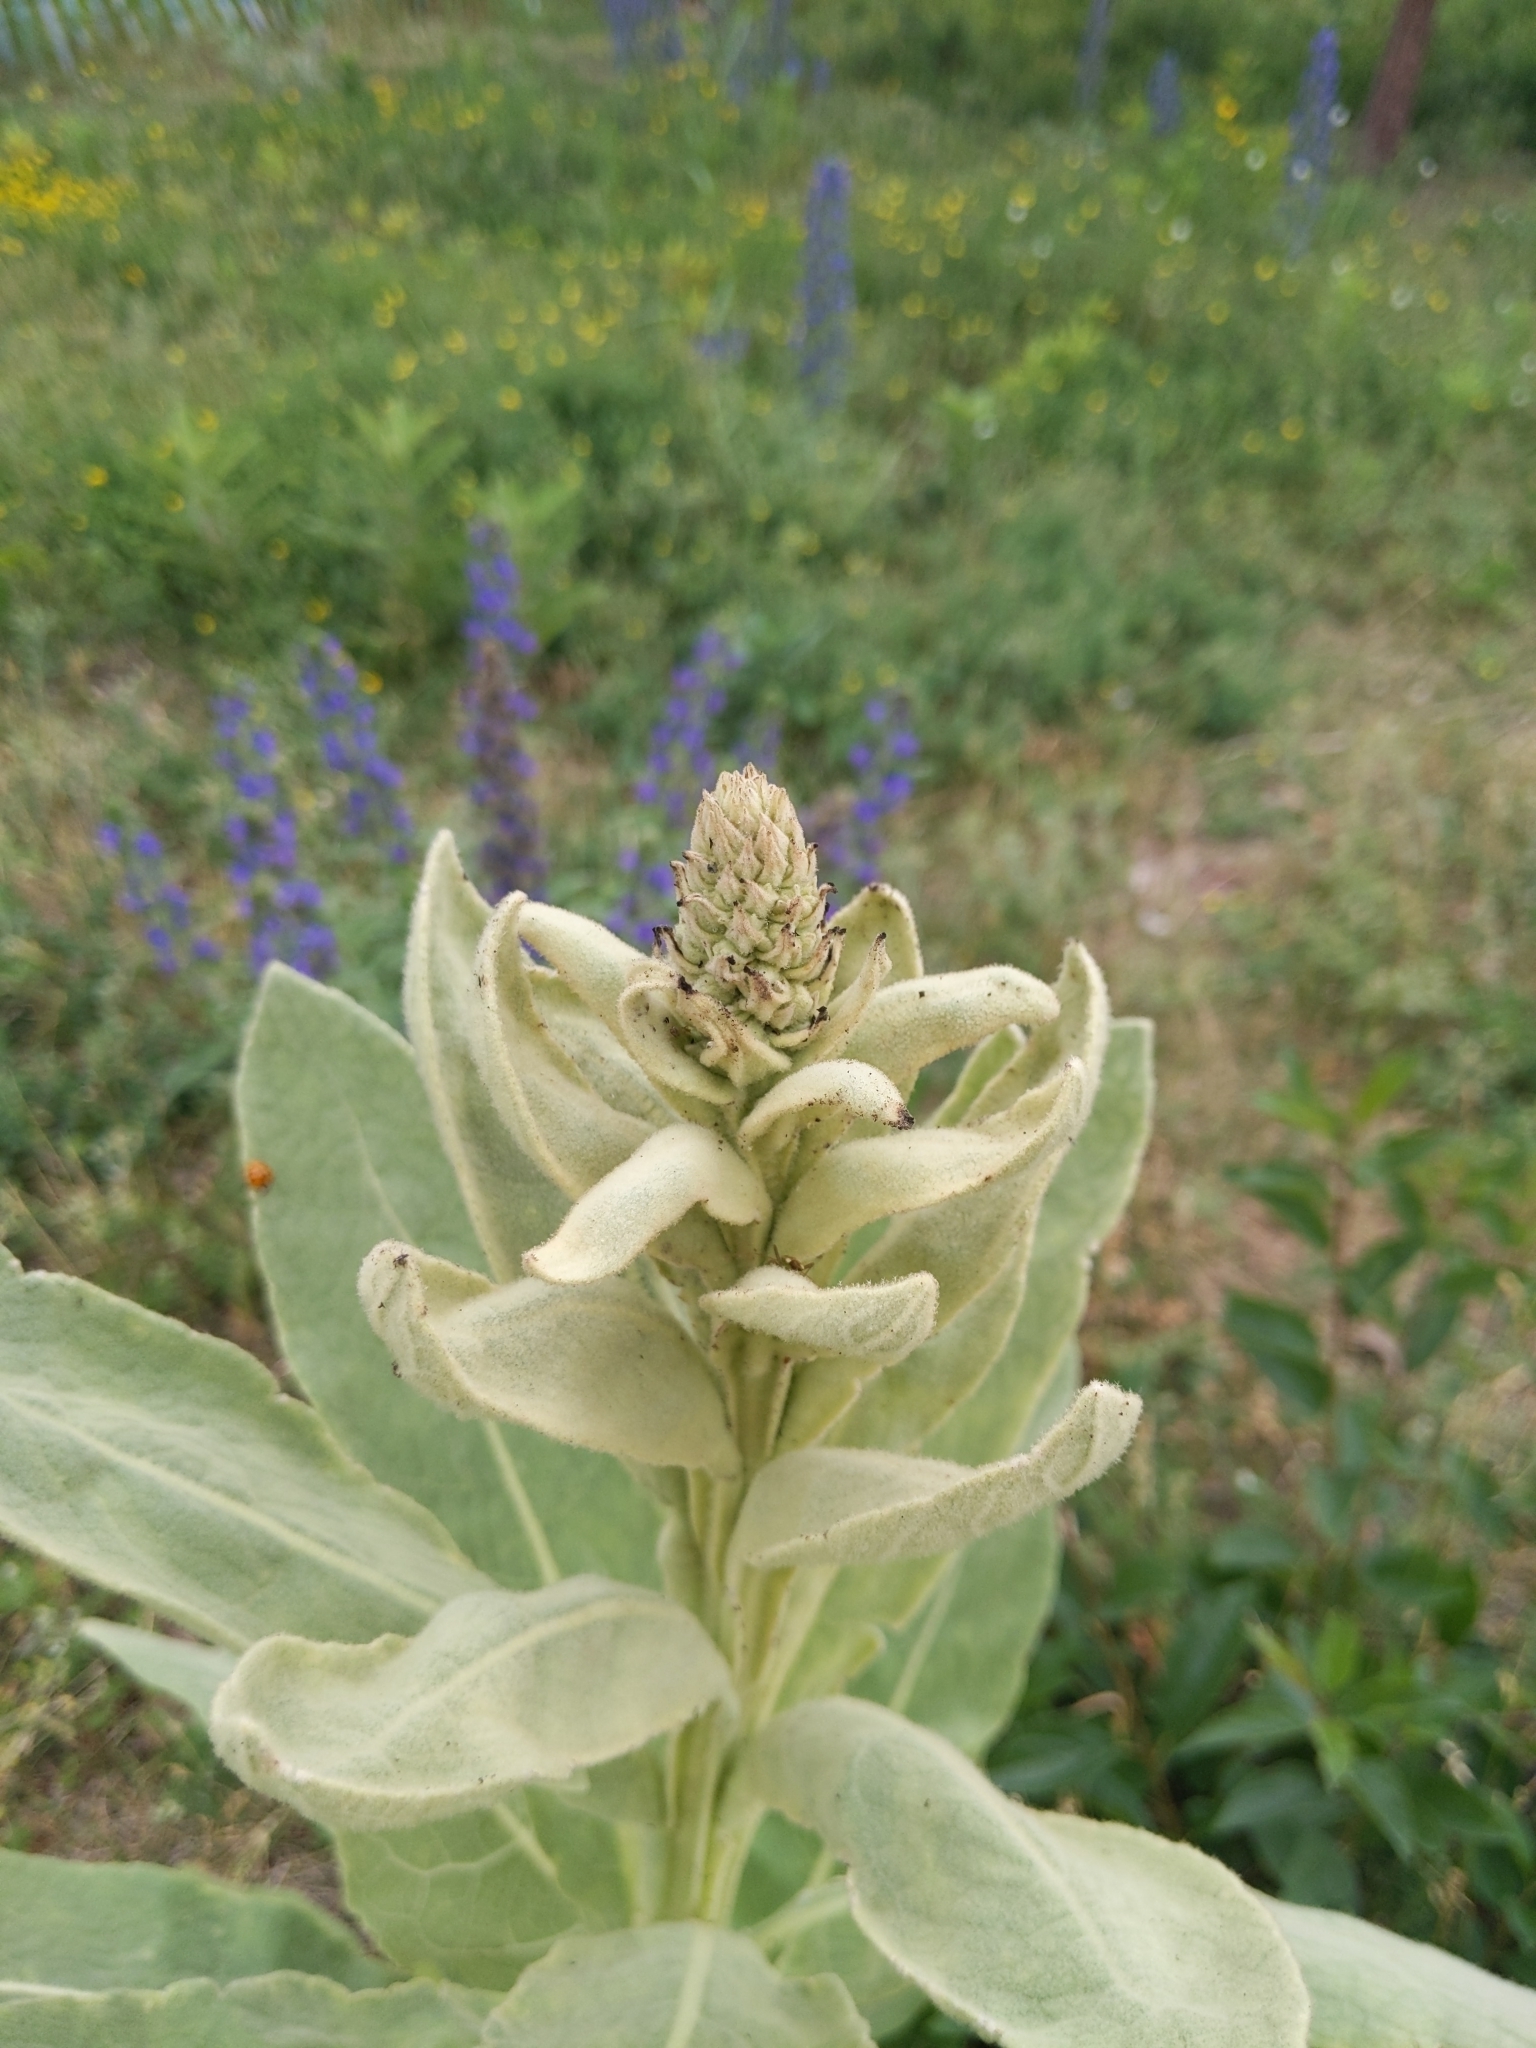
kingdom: Plantae
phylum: Tracheophyta
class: Magnoliopsida
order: Lamiales
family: Scrophulariaceae
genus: Verbascum
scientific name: Verbascum thapsus
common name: Common mullein
